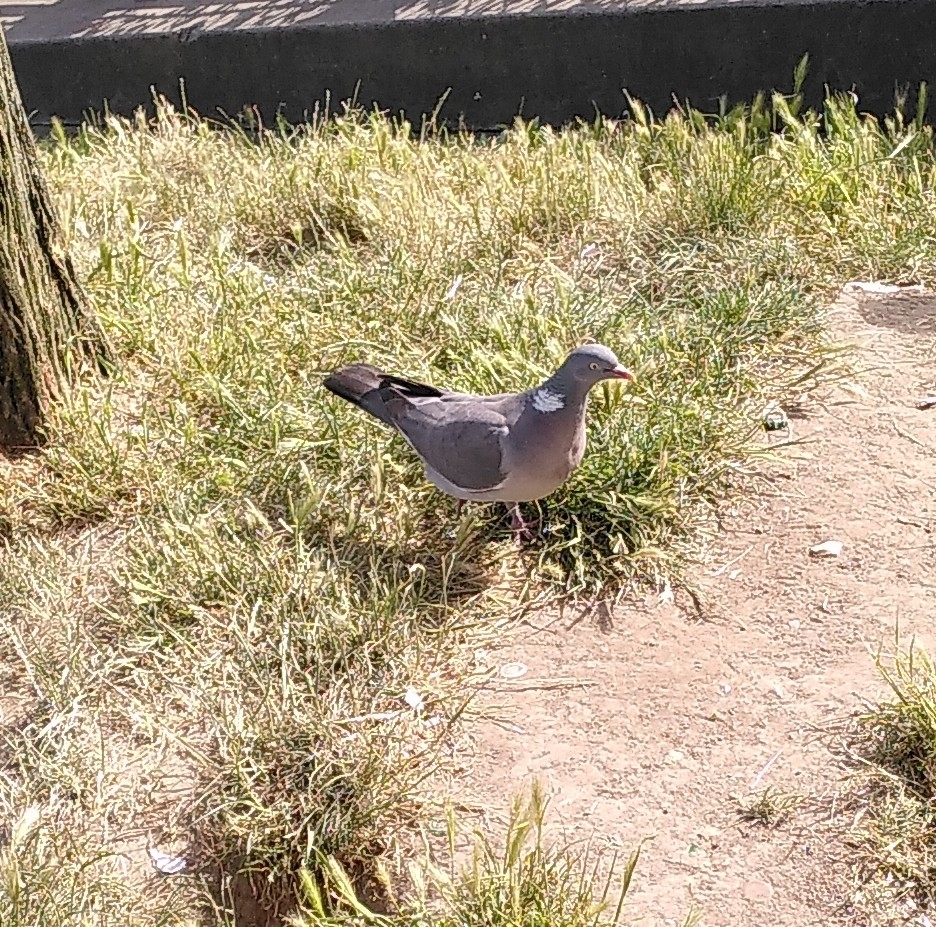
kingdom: Animalia
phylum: Chordata
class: Aves
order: Columbiformes
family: Columbidae
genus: Columba
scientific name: Columba palumbus
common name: Common wood pigeon
